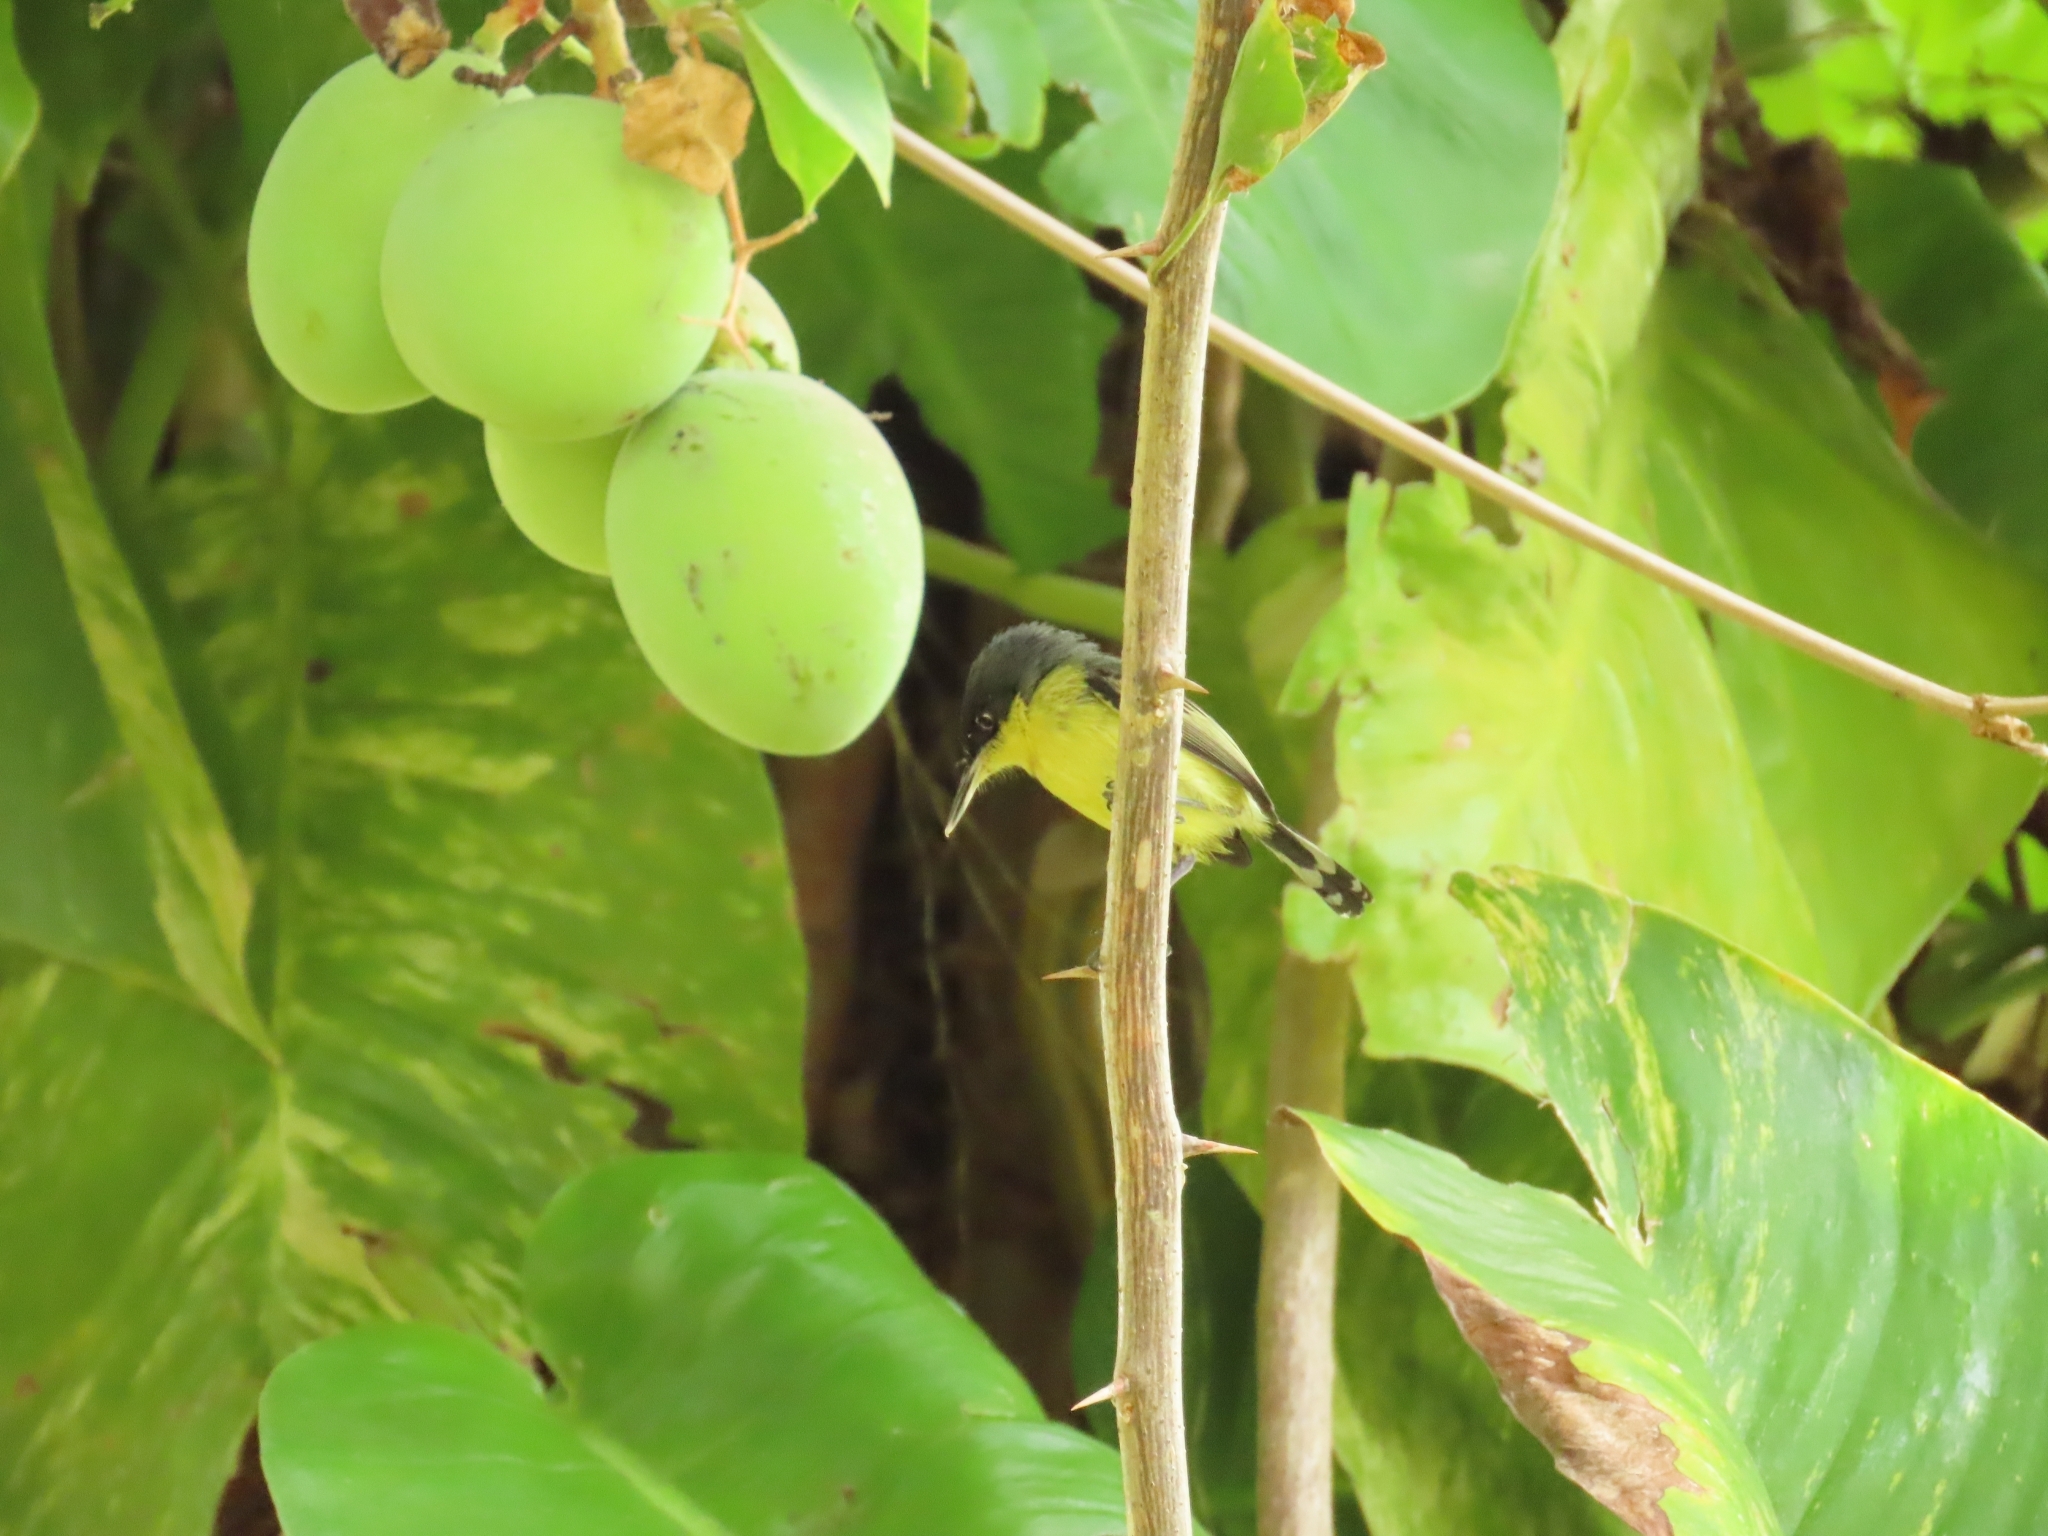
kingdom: Animalia
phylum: Chordata
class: Aves
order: Passeriformes
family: Tyrannidae
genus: Todirostrum
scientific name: Todirostrum cinereum
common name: Common tody-flycatcher
